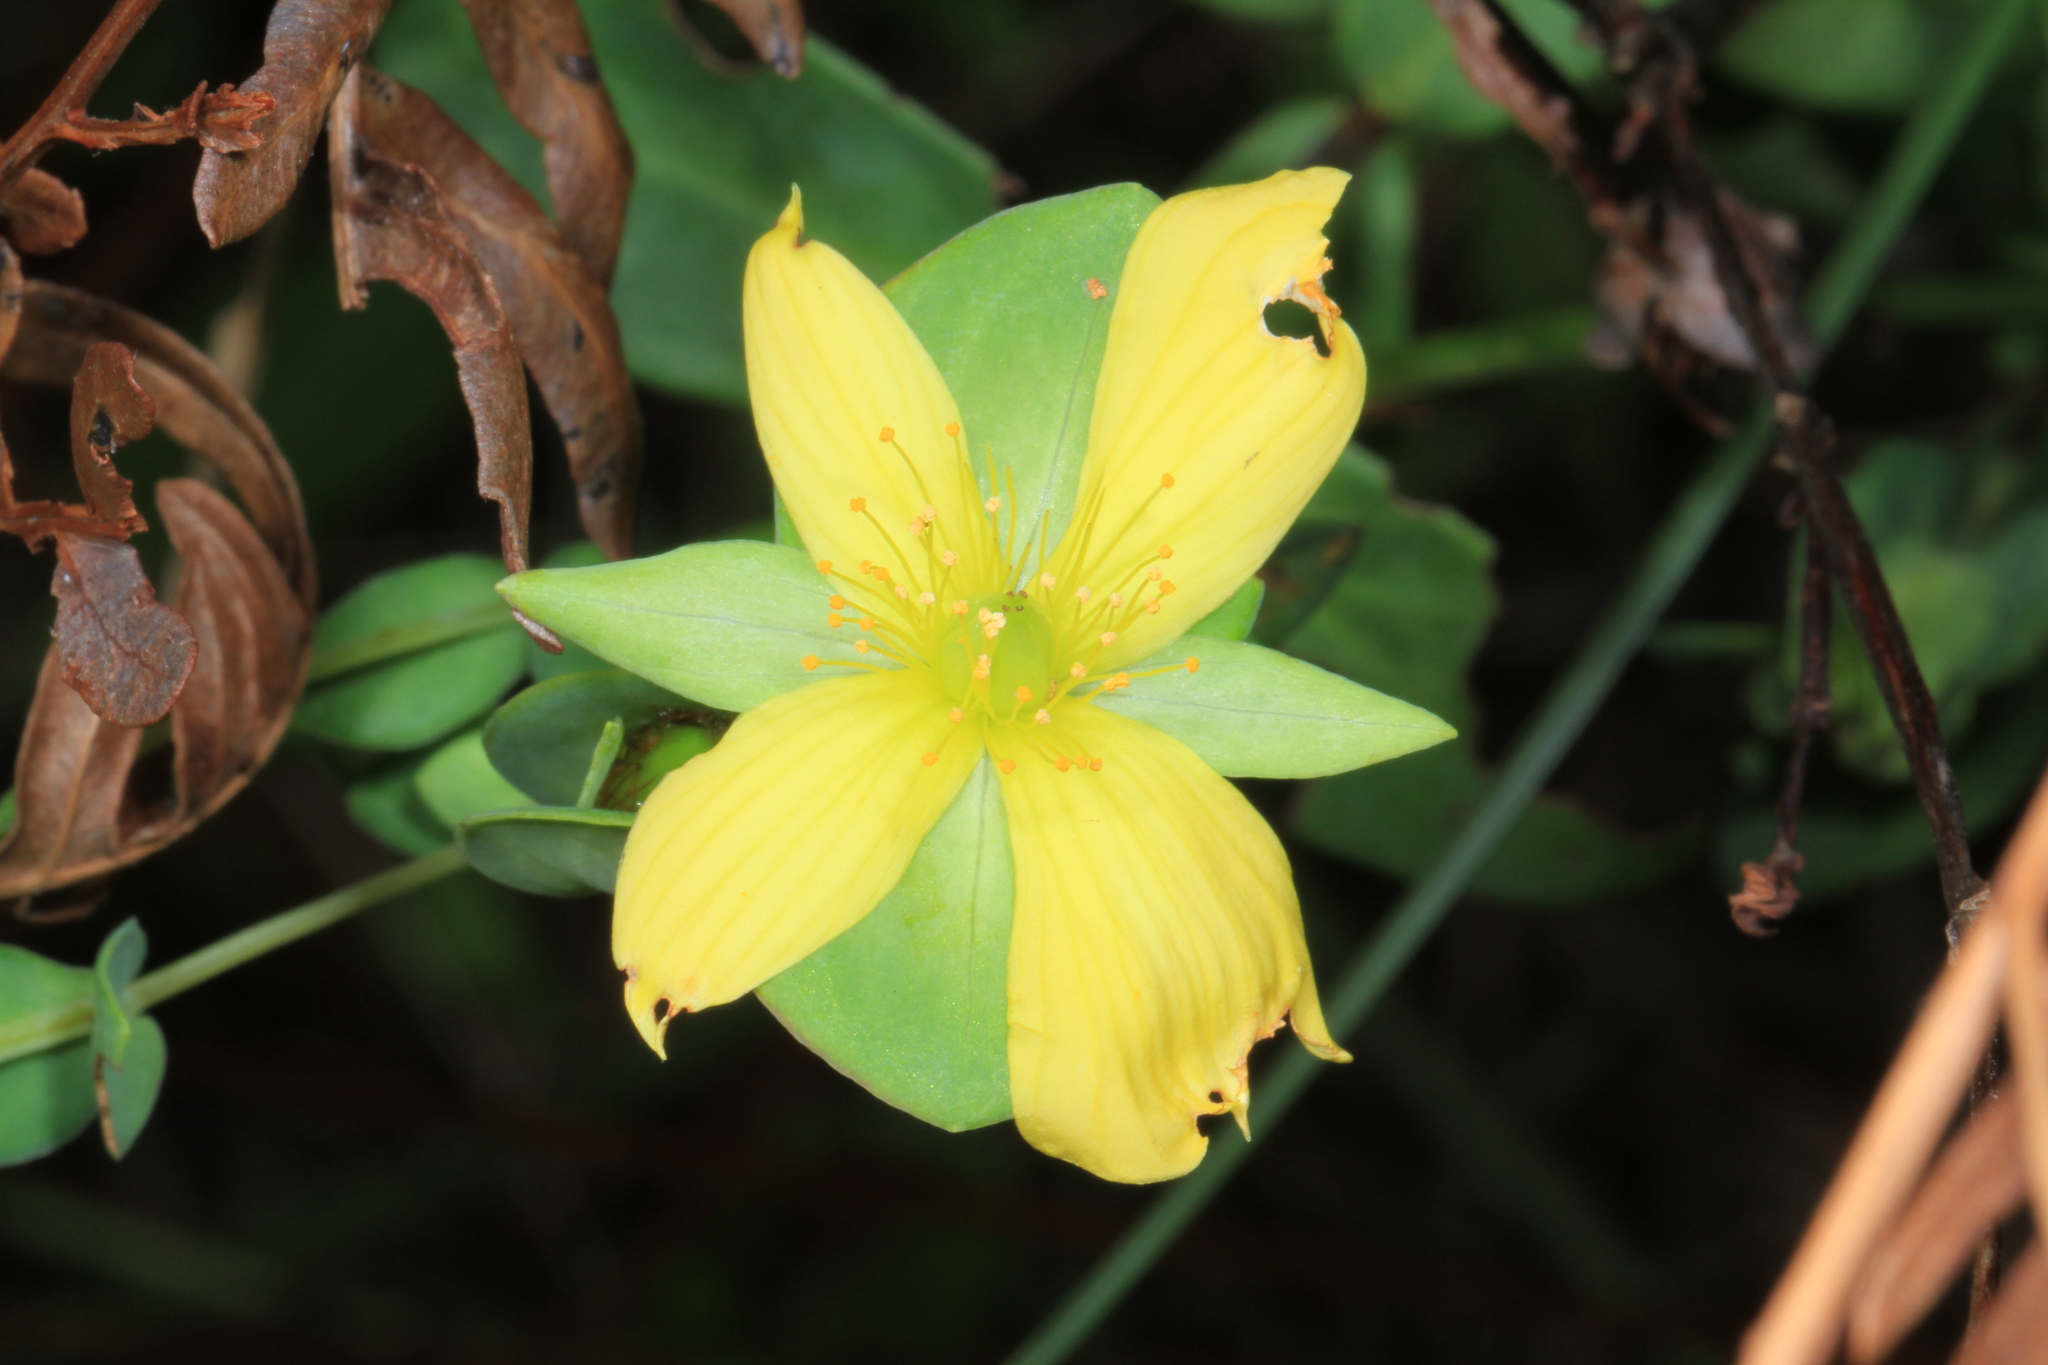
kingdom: Plantae
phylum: Tracheophyta
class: Magnoliopsida
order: Malpighiales
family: Hypericaceae
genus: Hypericum
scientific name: Hypericum crux-andreae
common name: St.-peter's-wort
